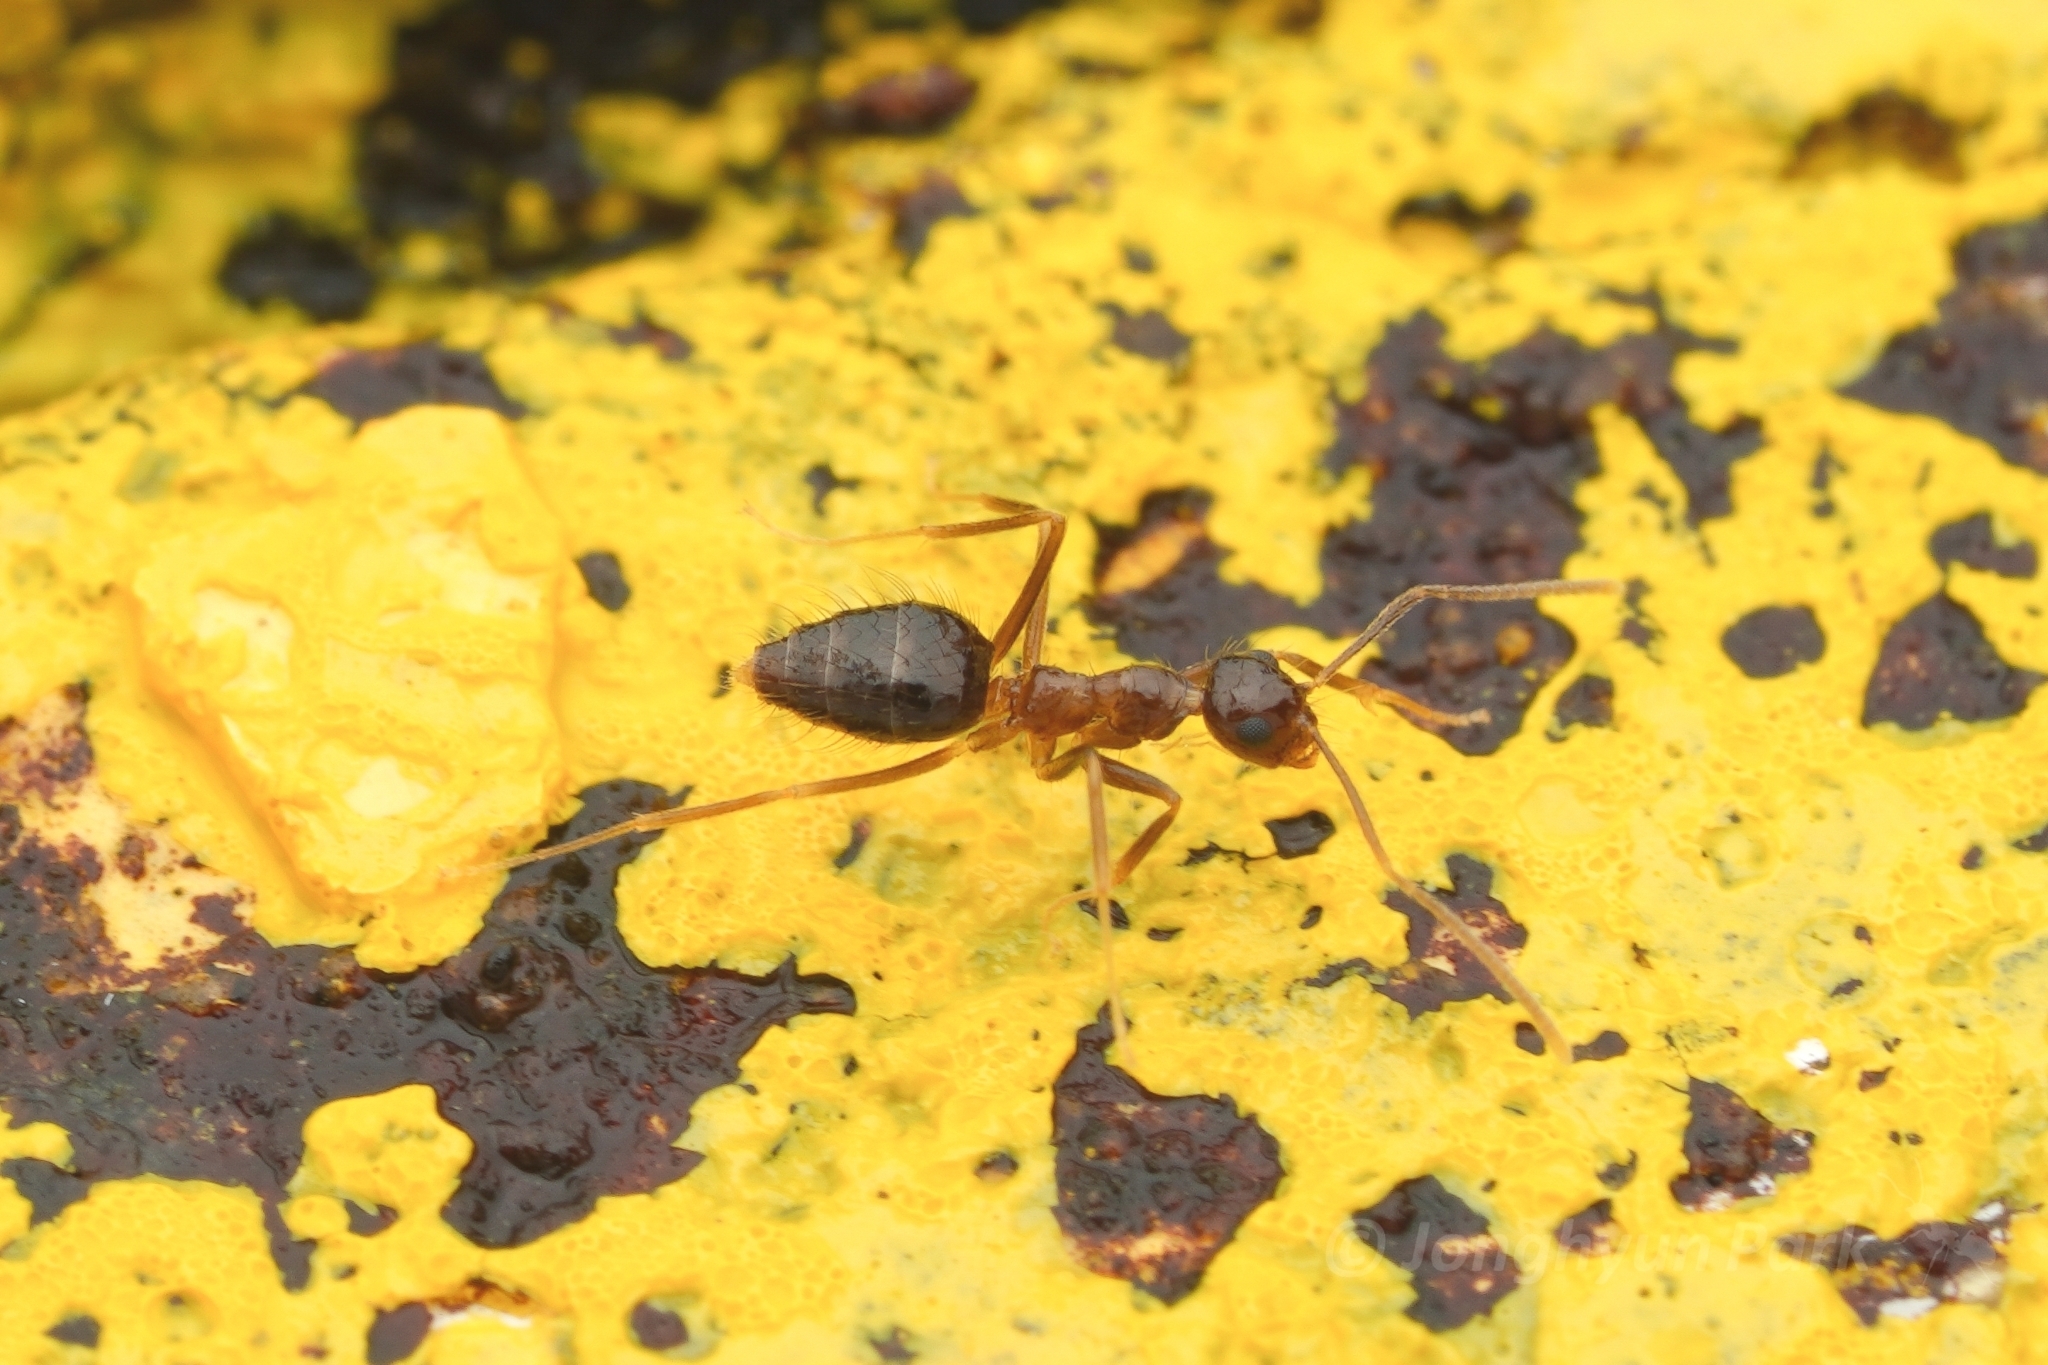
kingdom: Animalia
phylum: Arthropoda
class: Insecta
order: Hymenoptera
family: Formicidae
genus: Prenolepis
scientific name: Prenolepis jerdoni
